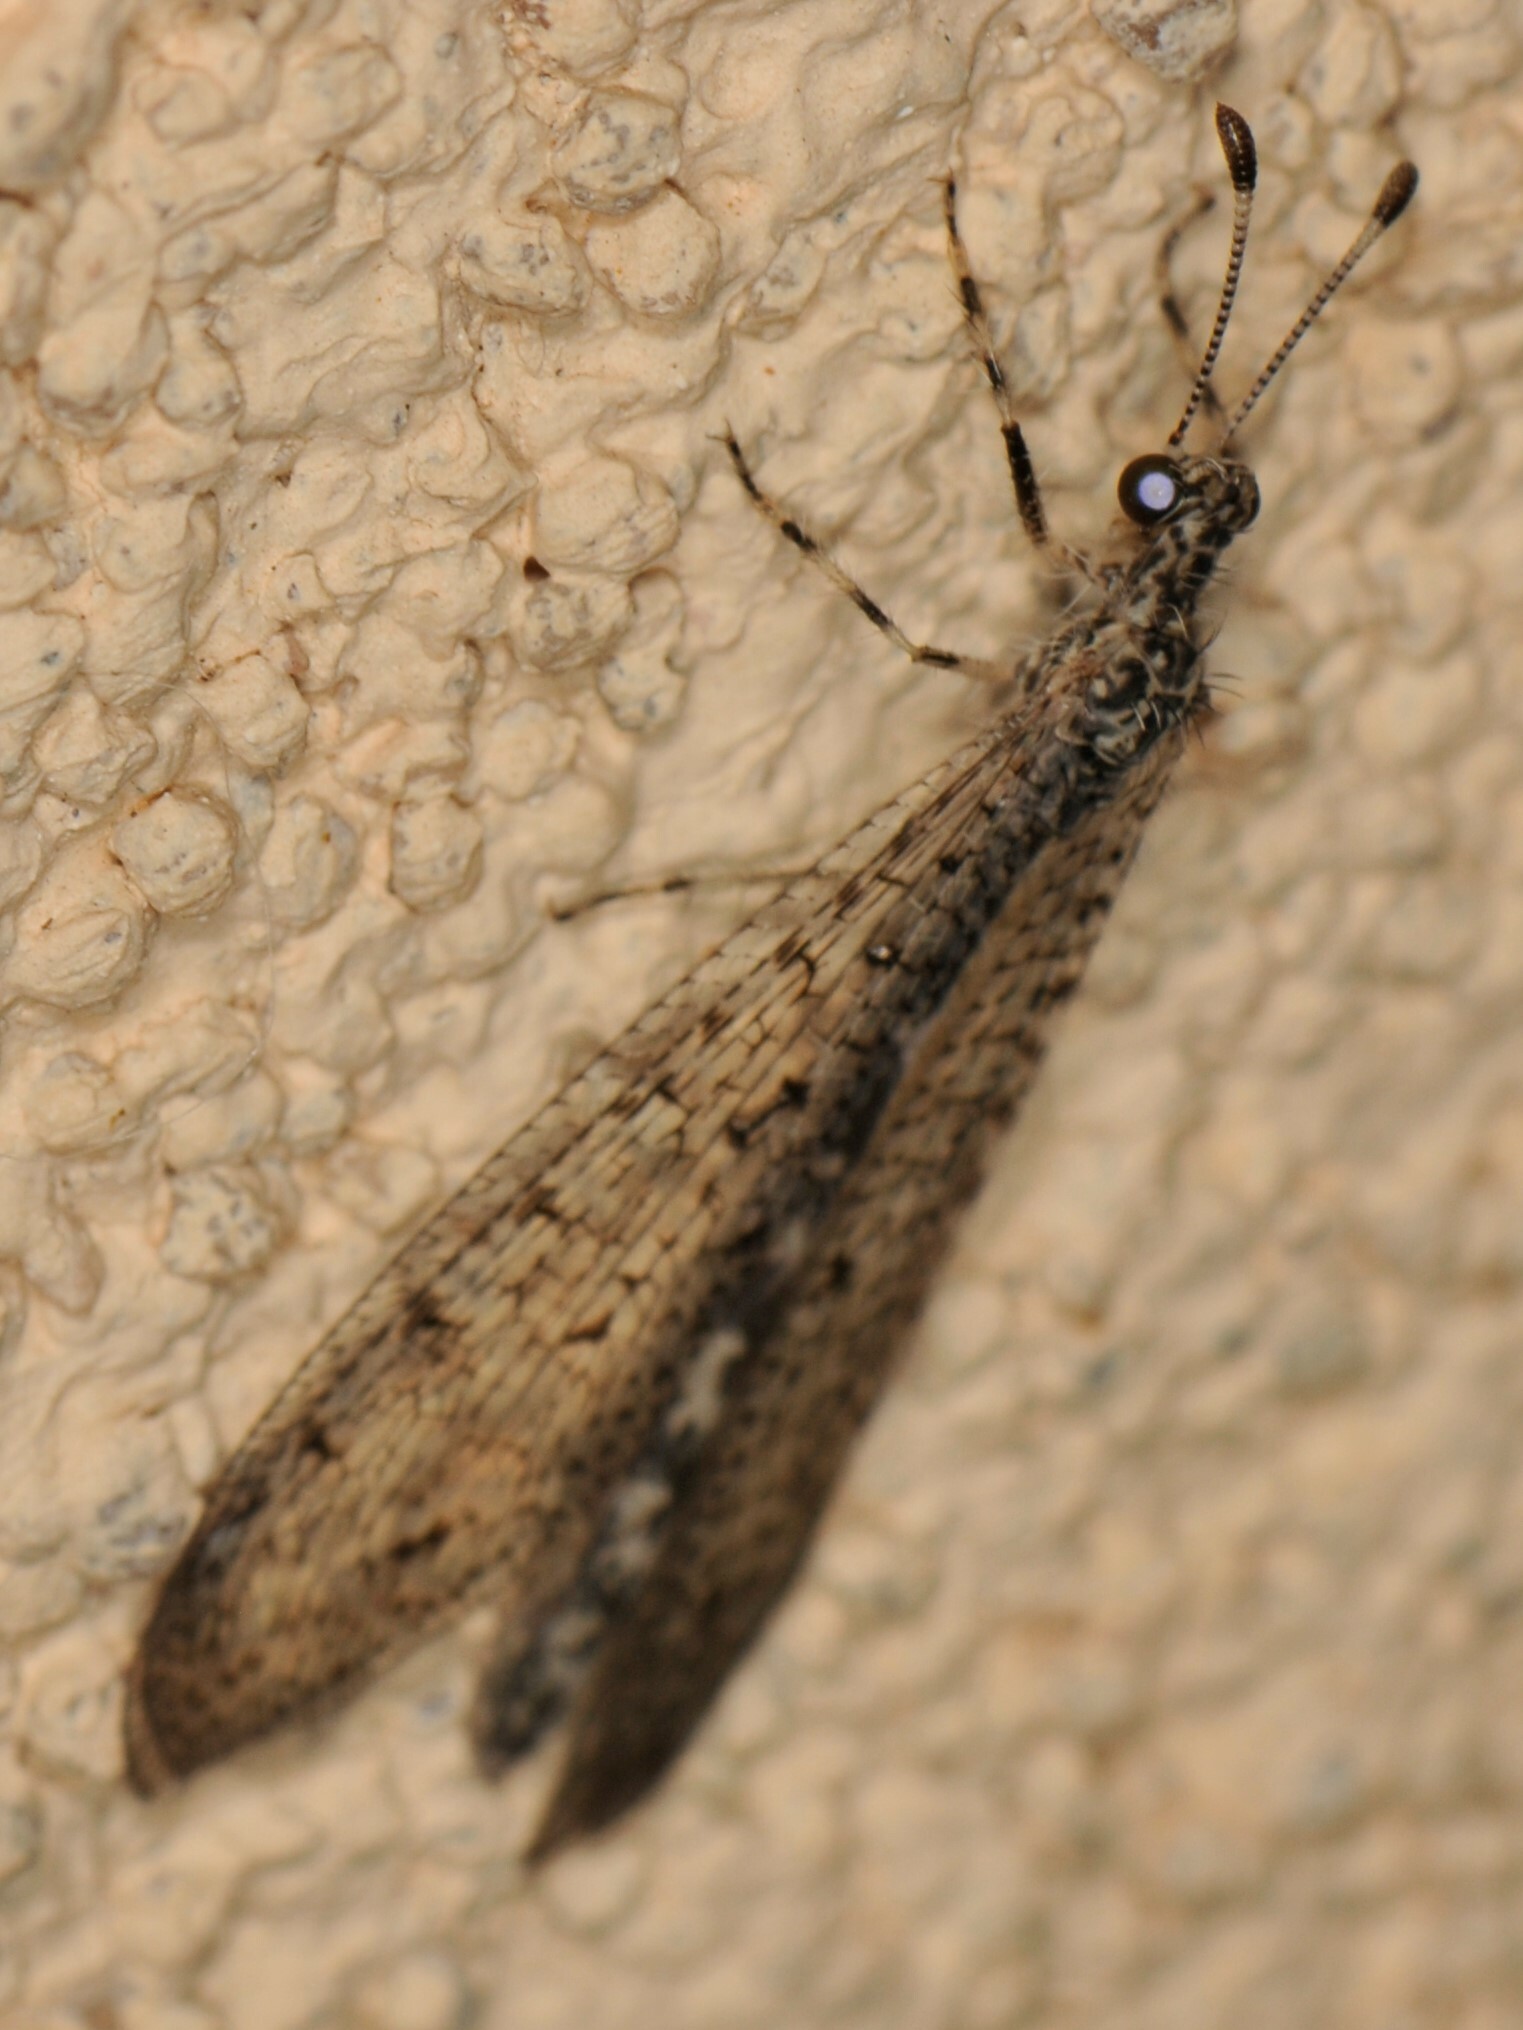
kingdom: Animalia
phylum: Arthropoda
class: Insecta
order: Neuroptera
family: Myrmeleontidae
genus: Chaetoleon
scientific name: Chaetoleon pusillus
